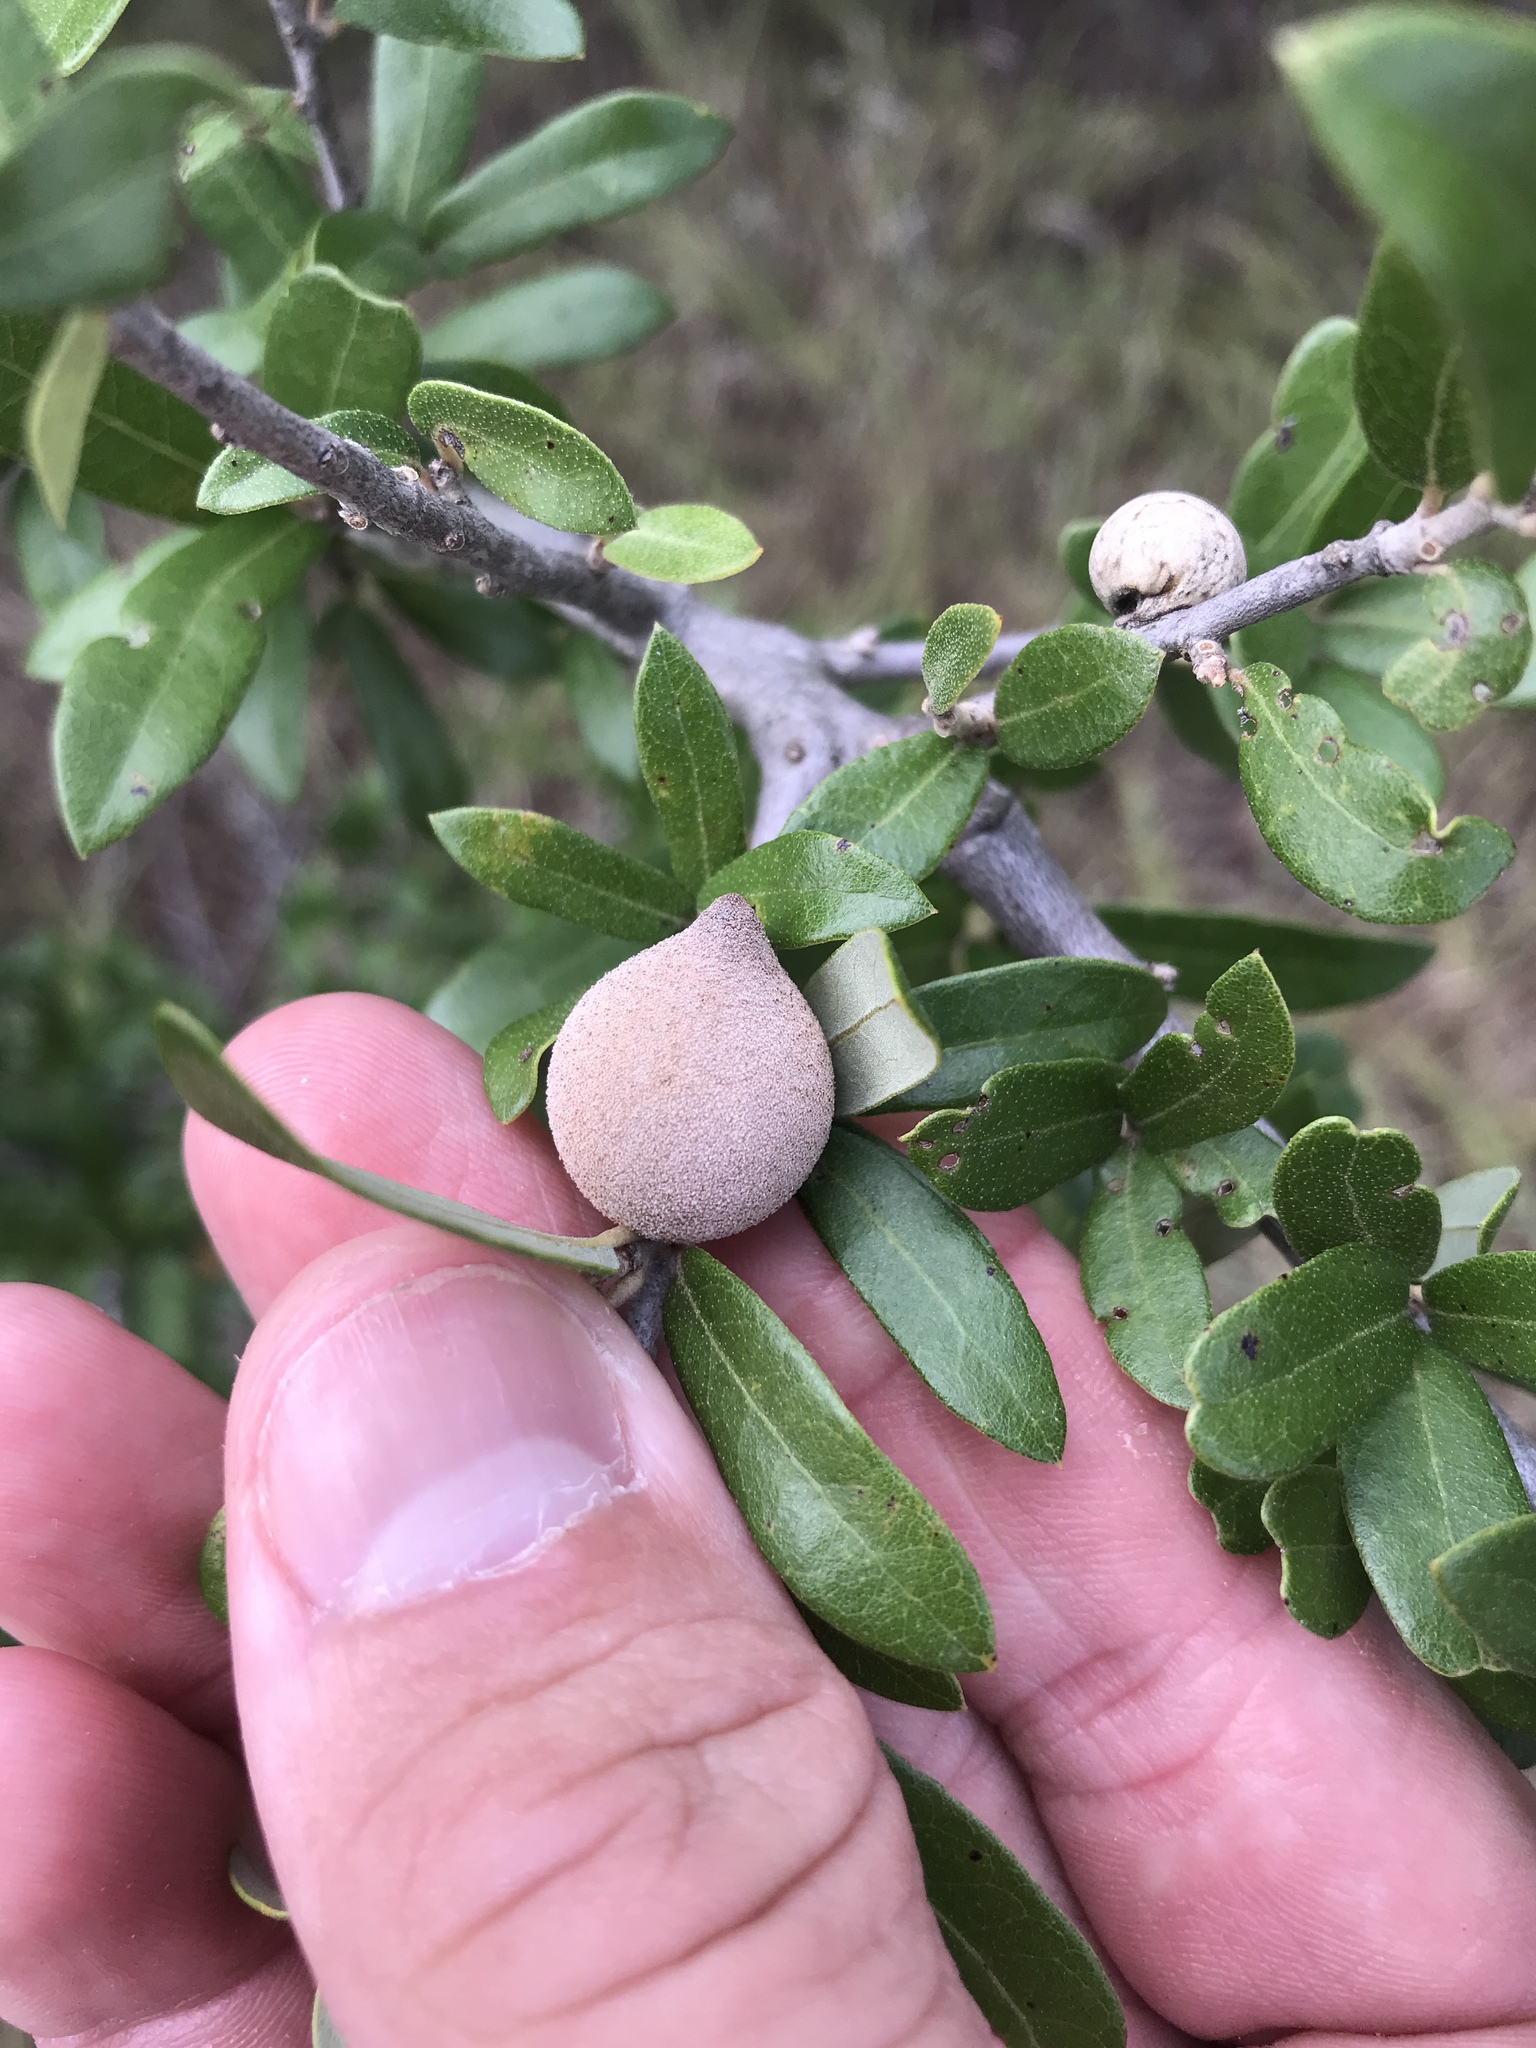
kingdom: Animalia
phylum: Arthropoda
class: Insecta
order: Hymenoptera
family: Cynipidae
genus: Disholcaspis
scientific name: Disholcaspis
